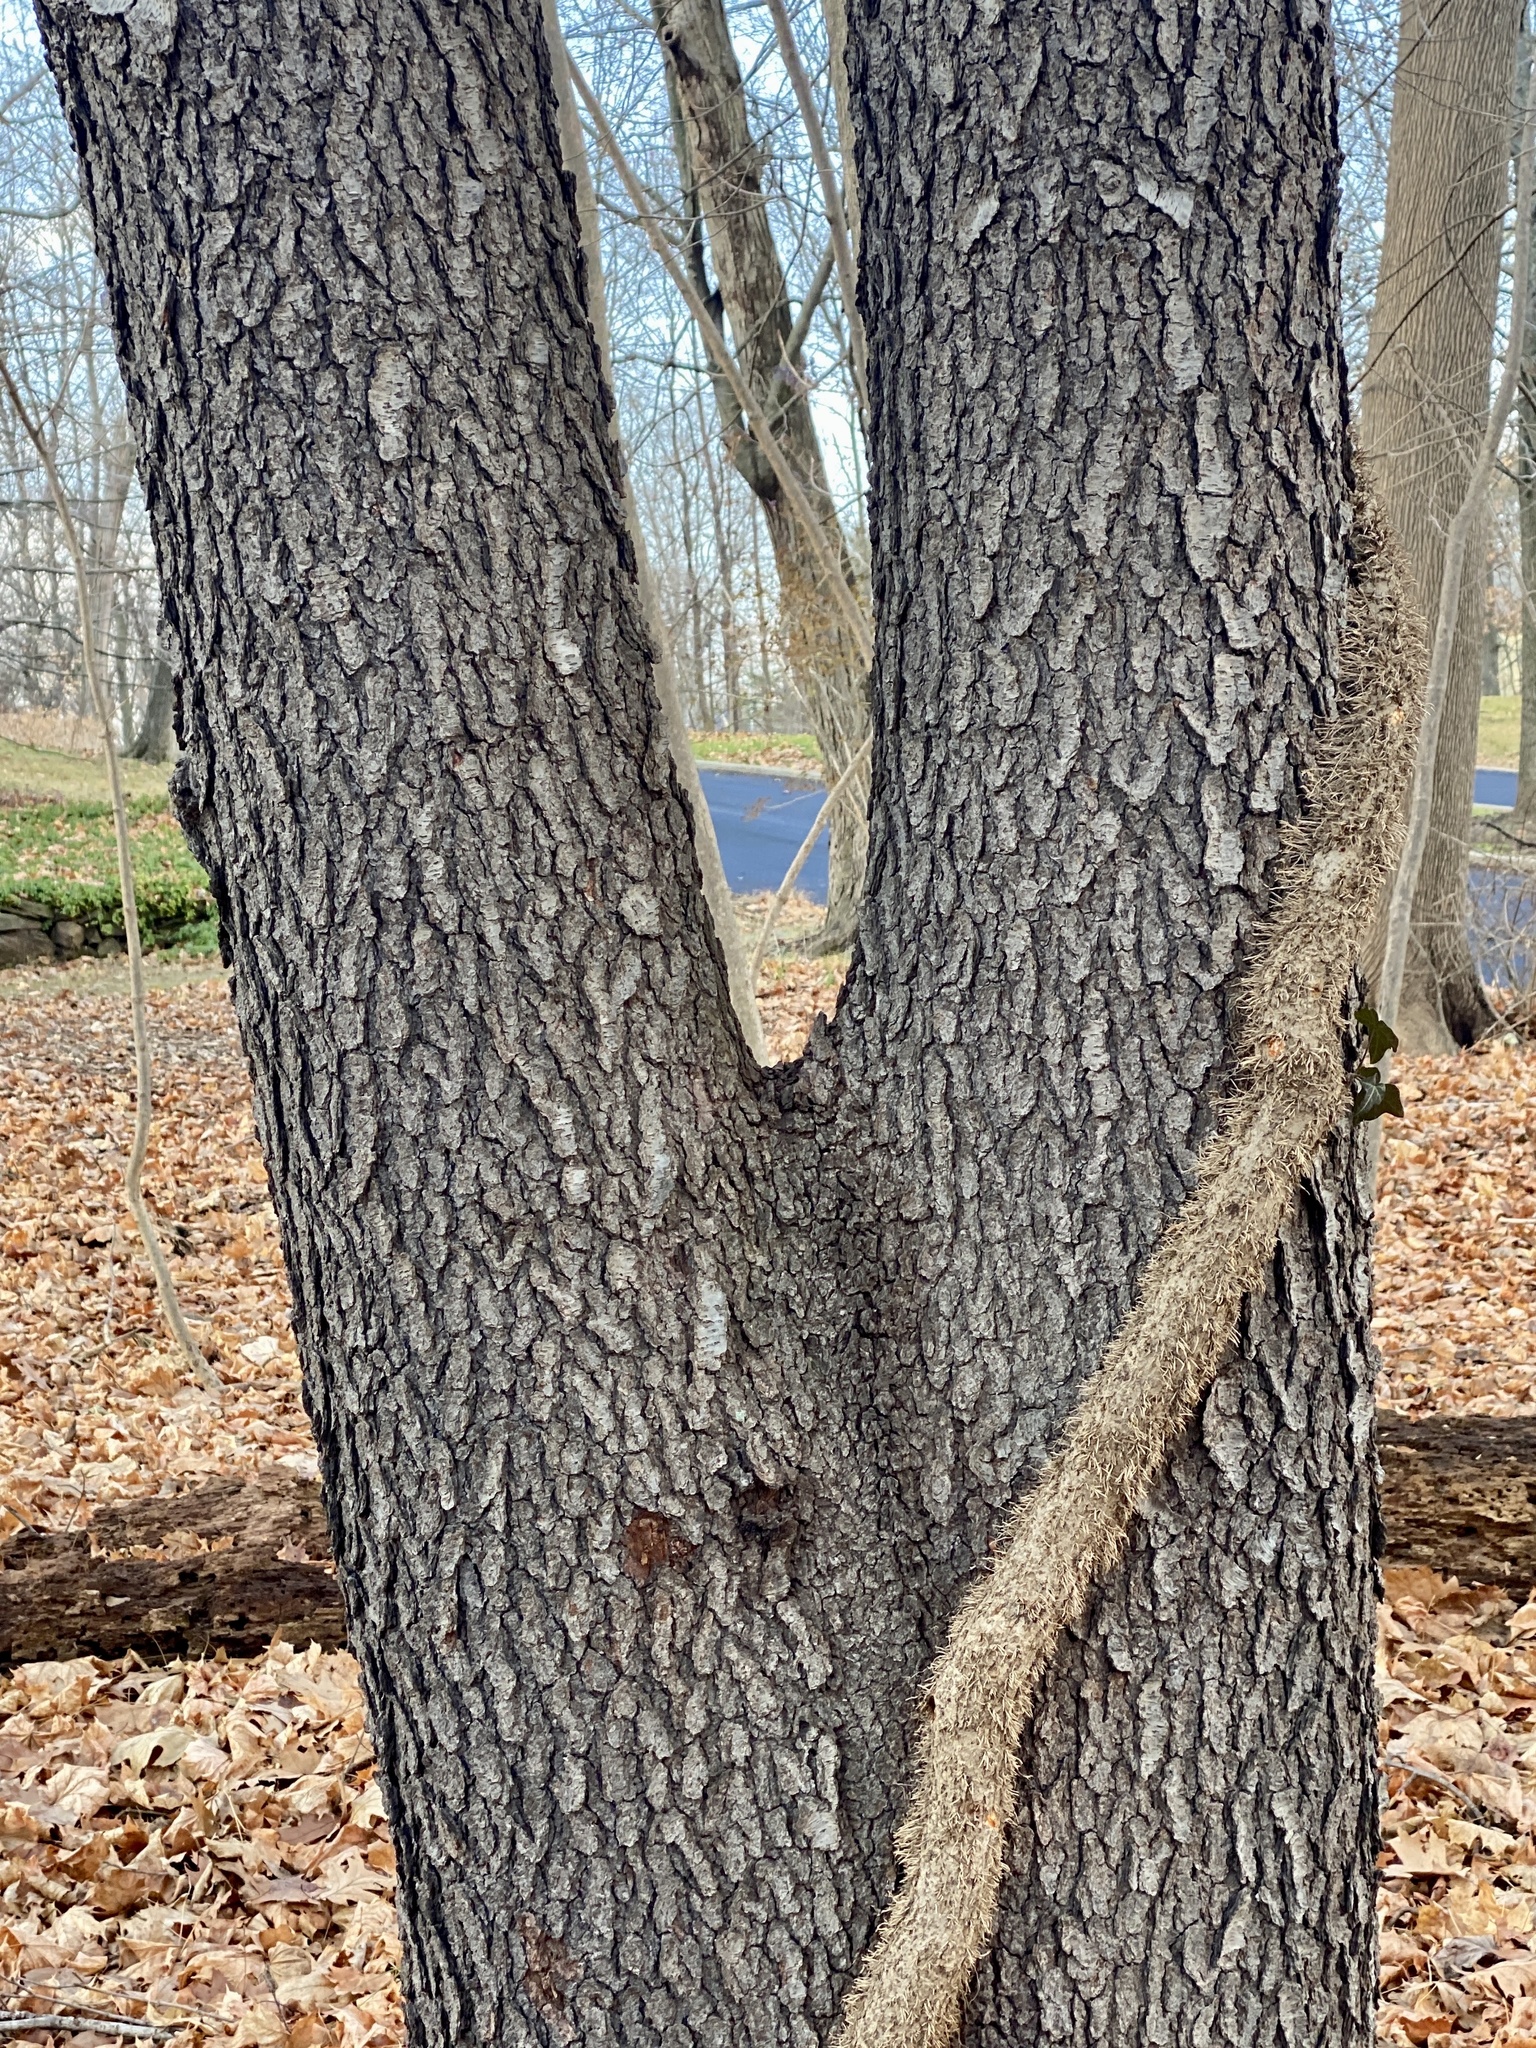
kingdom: Plantae
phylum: Tracheophyta
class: Magnoliopsida
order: Rosales
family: Rosaceae
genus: Prunus
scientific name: Prunus serotina
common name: Black cherry
